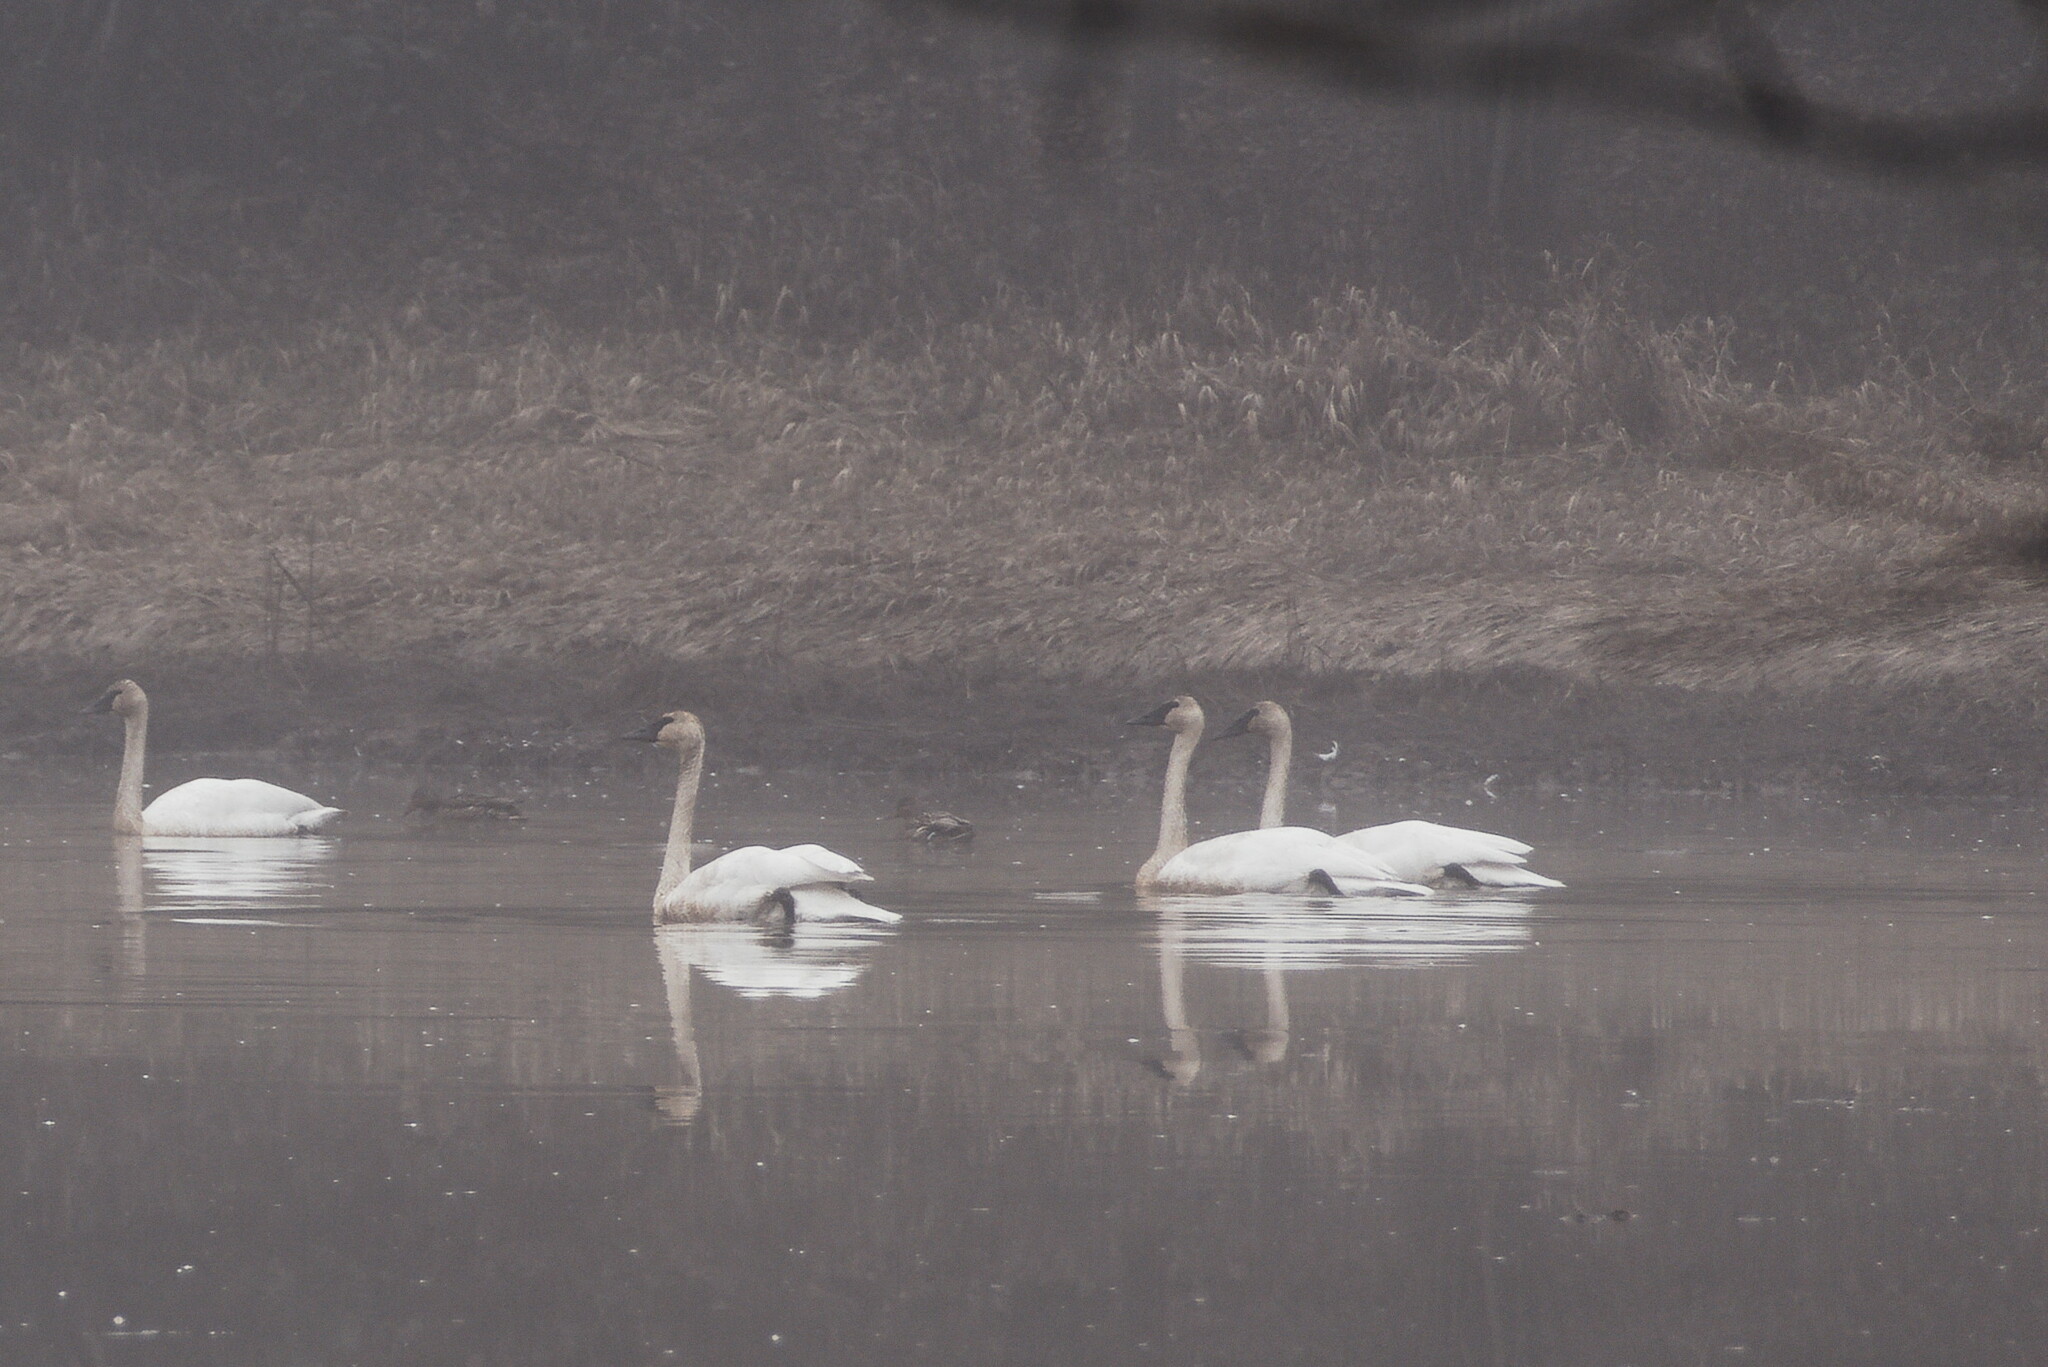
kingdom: Animalia
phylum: Chordata
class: Aves
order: Anseriformes
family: Anatidae
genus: Cygnus
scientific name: Cygnus buccinator
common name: Trumpeter swan
